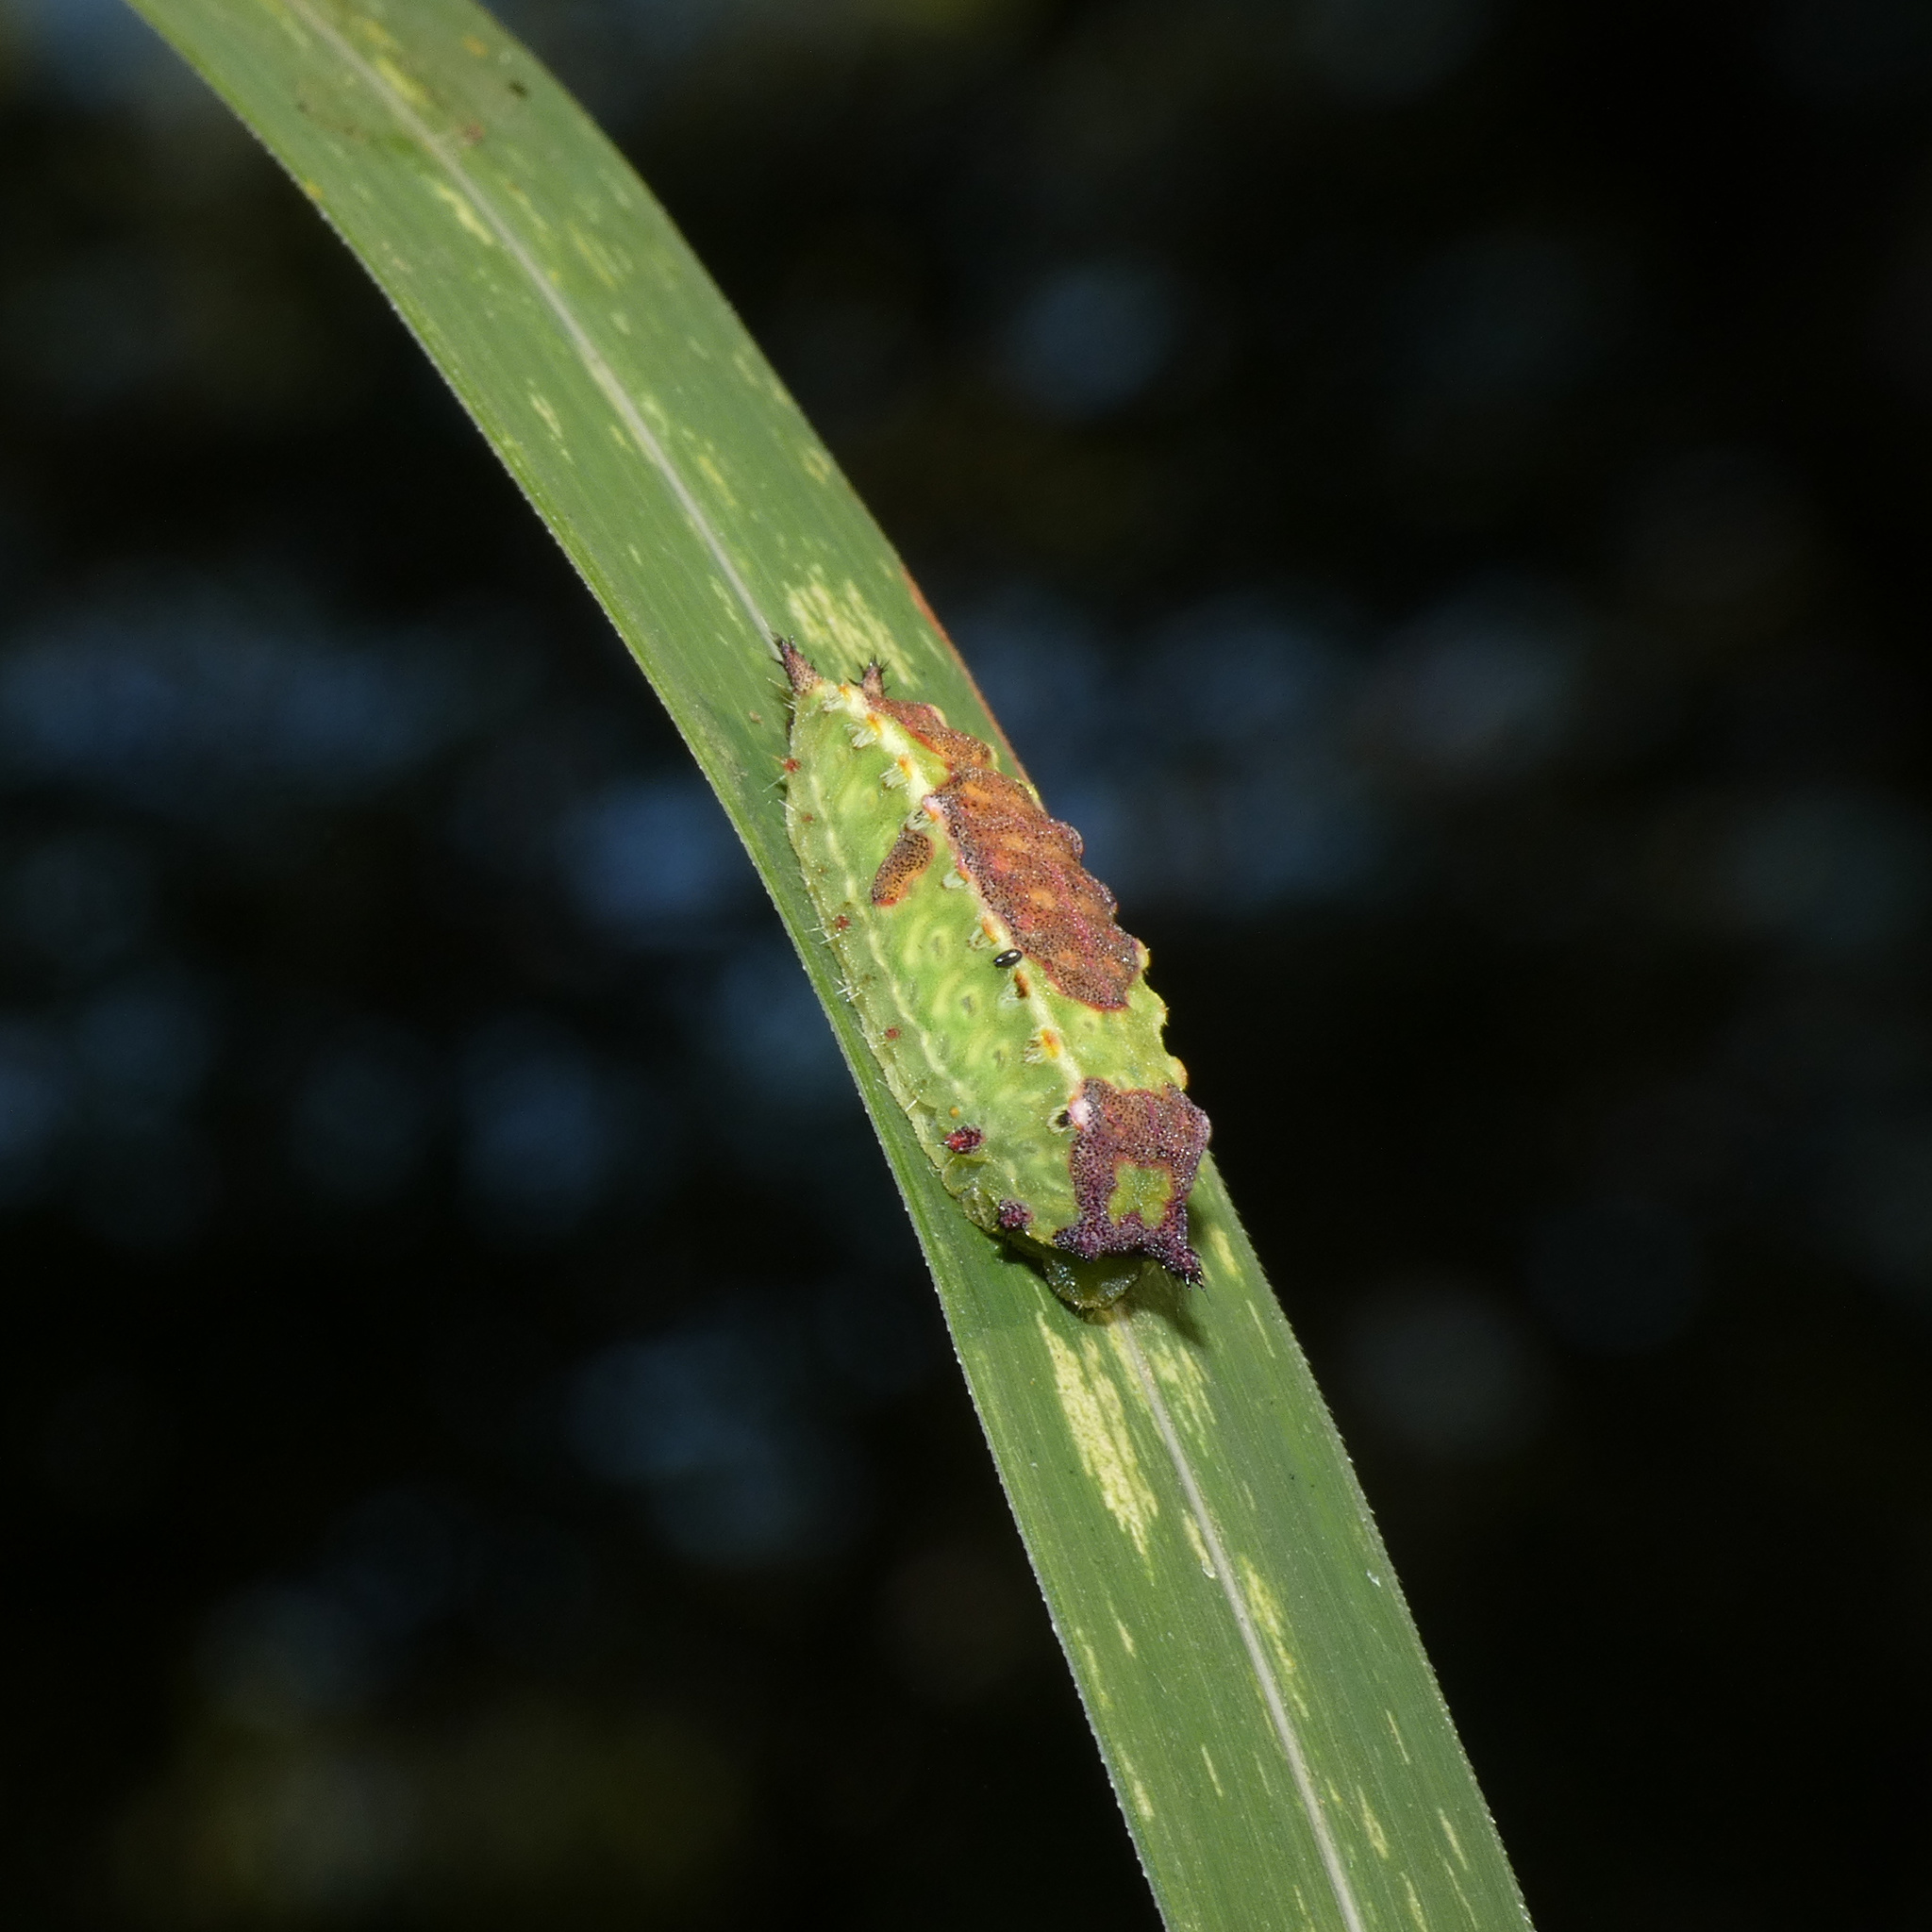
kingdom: Animalia
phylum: Arthropoda
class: Insecta
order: Lepidoptera
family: Limacodidae
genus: Micraphe
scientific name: Micraphe lateritia
